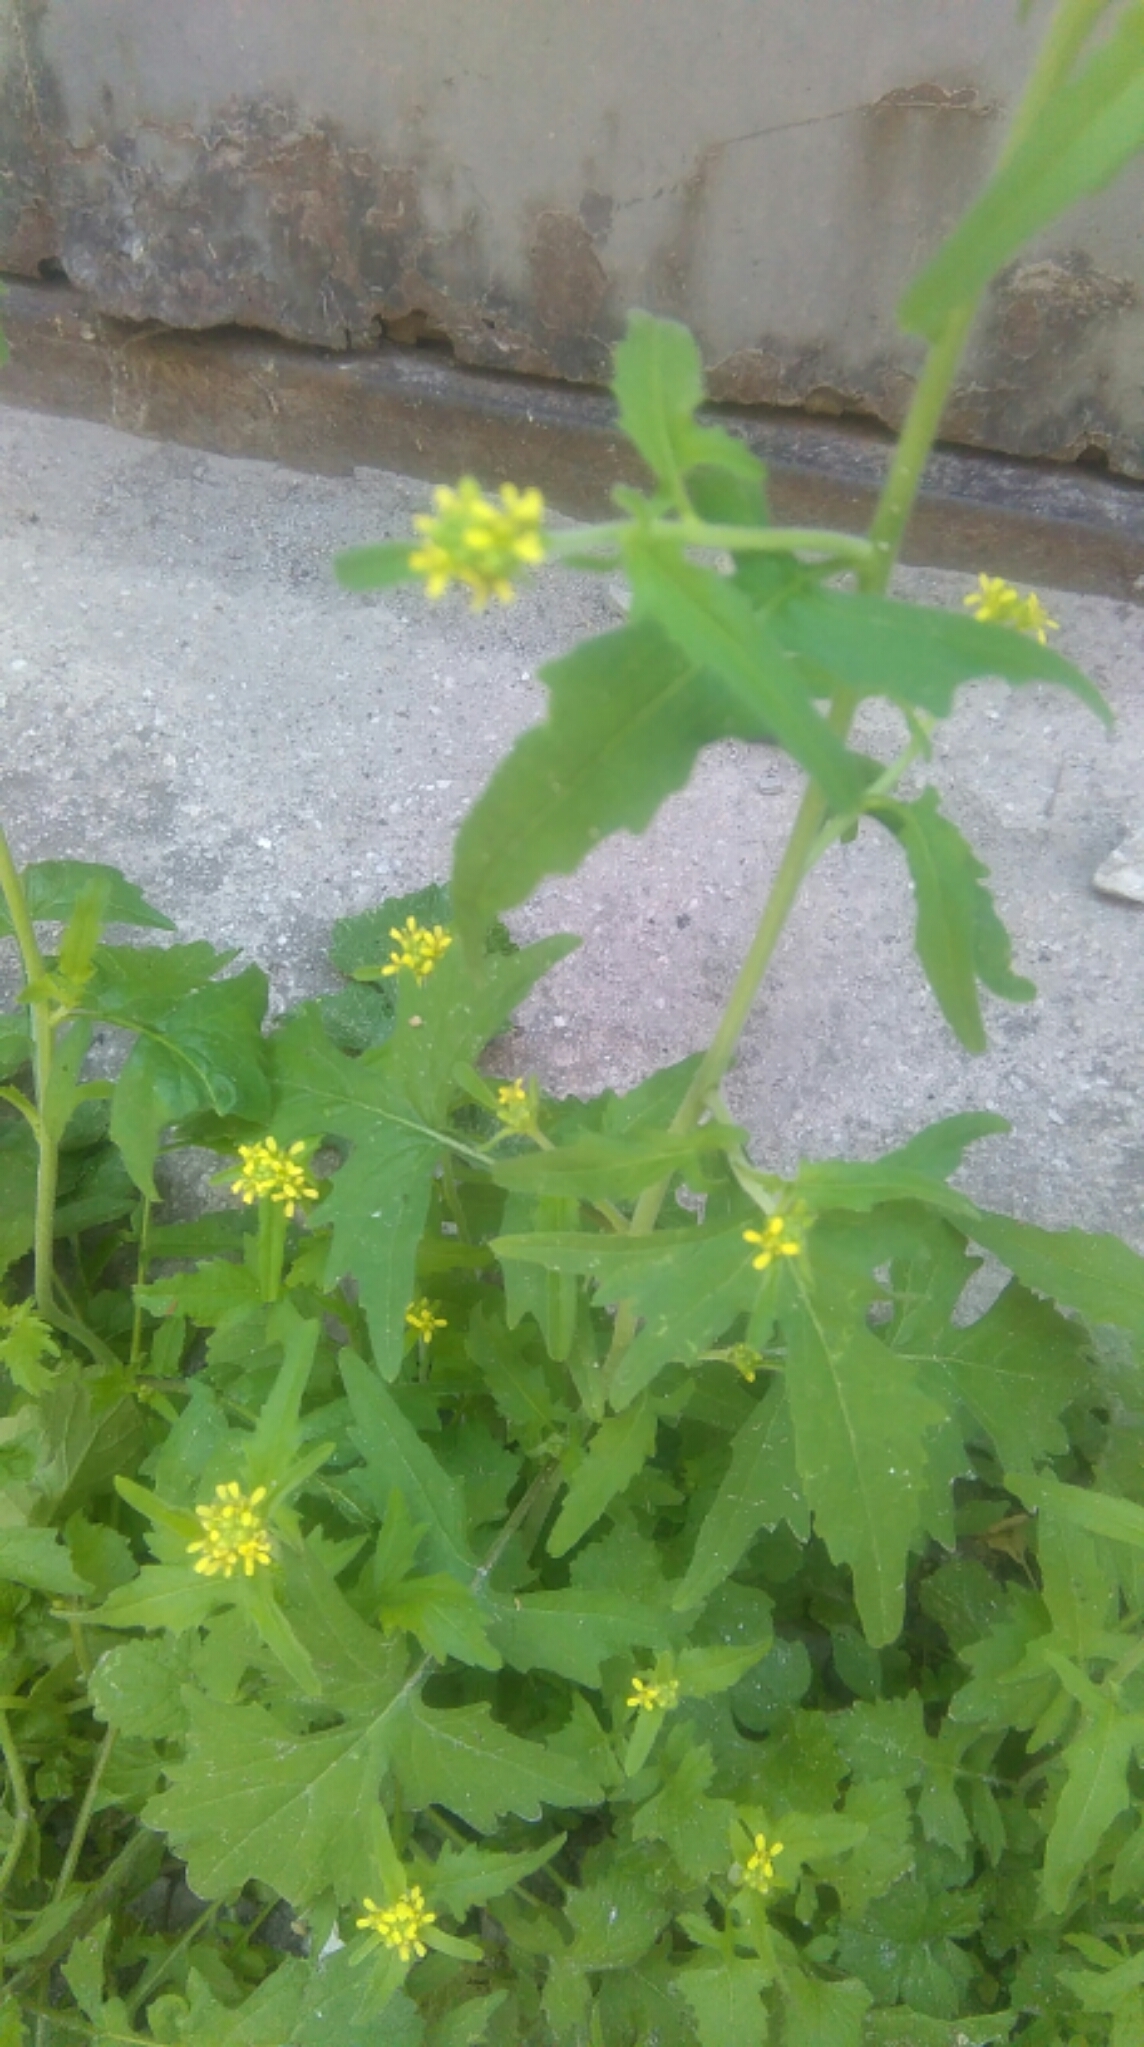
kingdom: Plantae
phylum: Tracheophyta
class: Magnoliopsida
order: Brassicales
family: Brassicaceae
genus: Sisymbrium
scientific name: Sisymbrium officinale
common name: Hedge mustard
